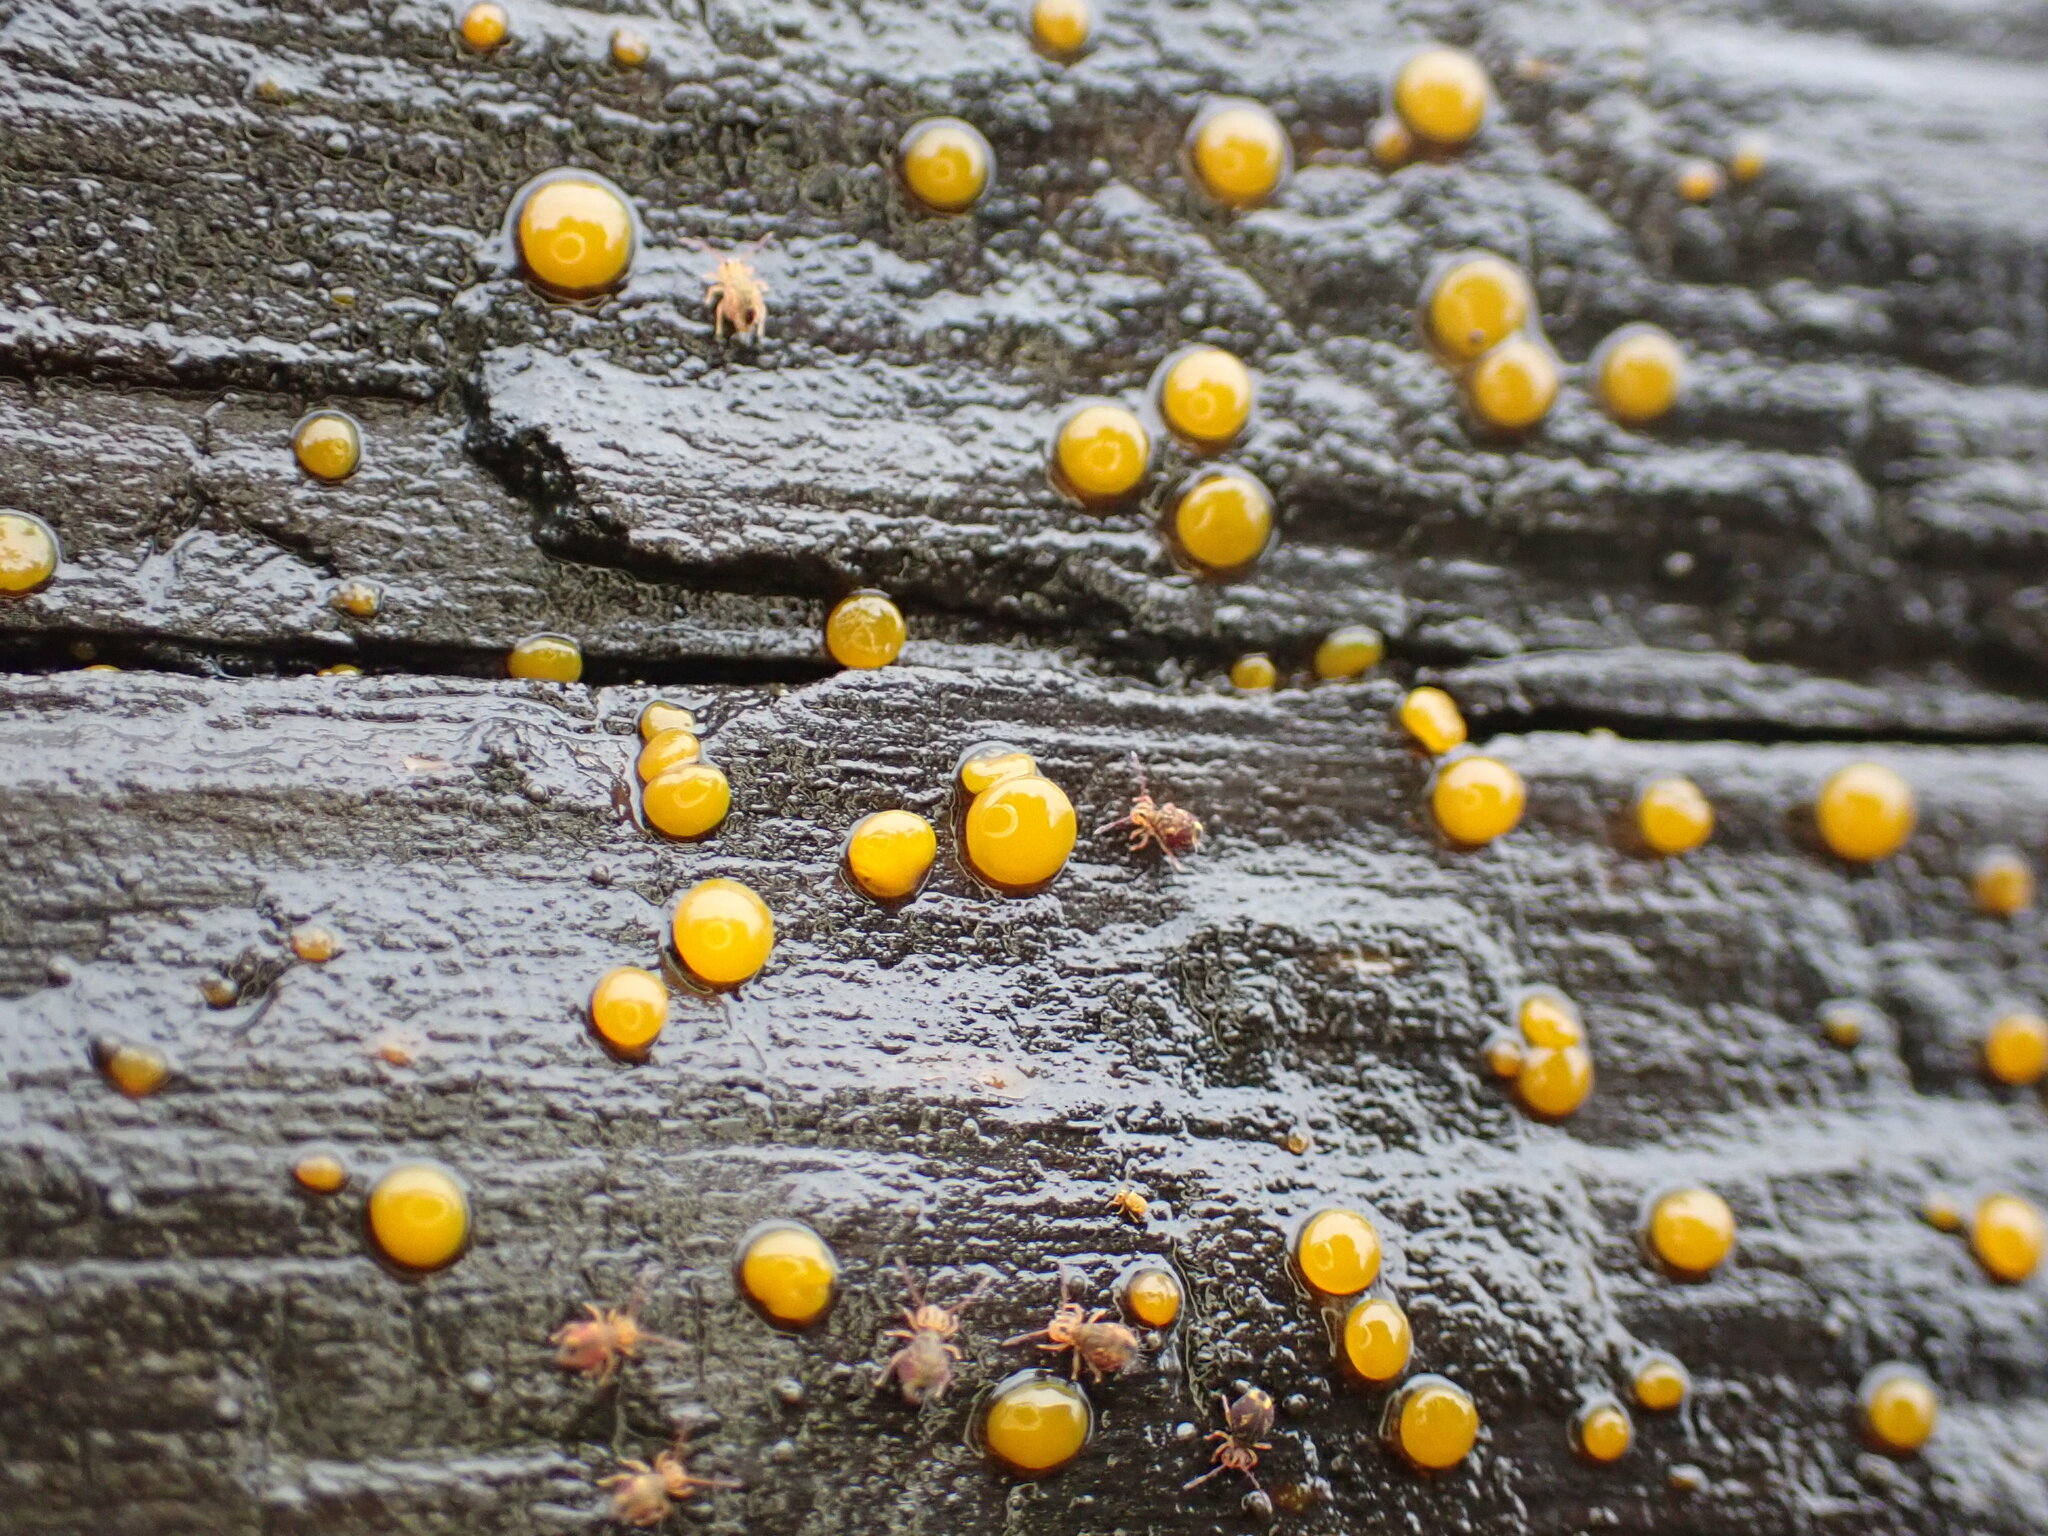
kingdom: Fungi
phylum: Basidiomycota
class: Dacrymycetes
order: Dacrymycetales
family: Dacrymycetaceae
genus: Dacrymyces
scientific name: Dacrymyces stillatus
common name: Common jelly spot
